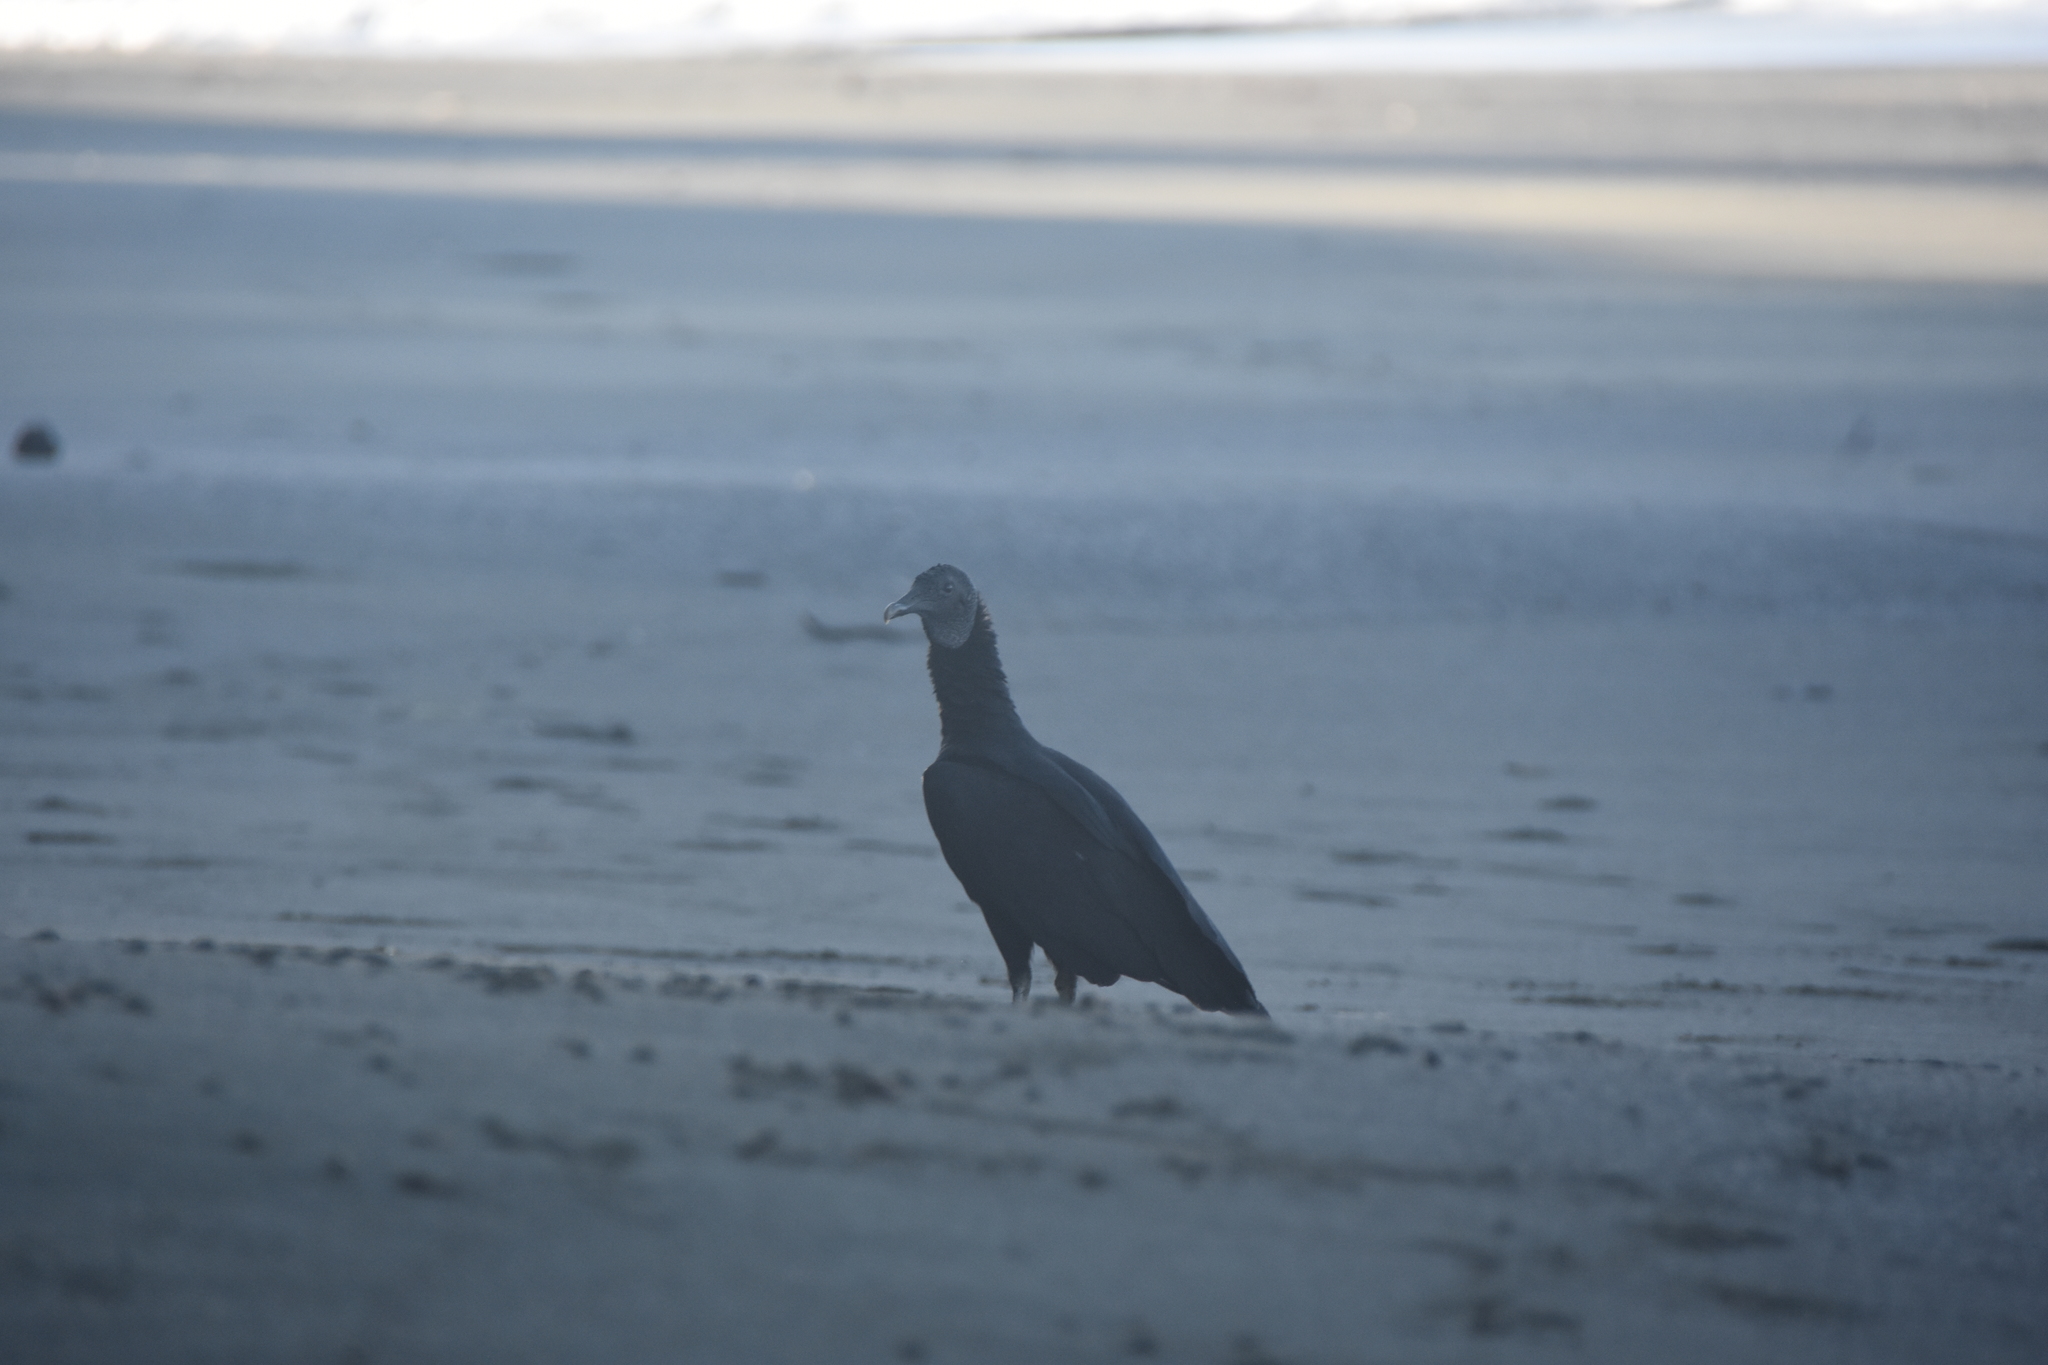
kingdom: Animalia
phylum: Chordata
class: Aves
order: Accipitriformes
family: Cathartidae
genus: Coragyps
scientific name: Coragyps atratus
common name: Black vulture
